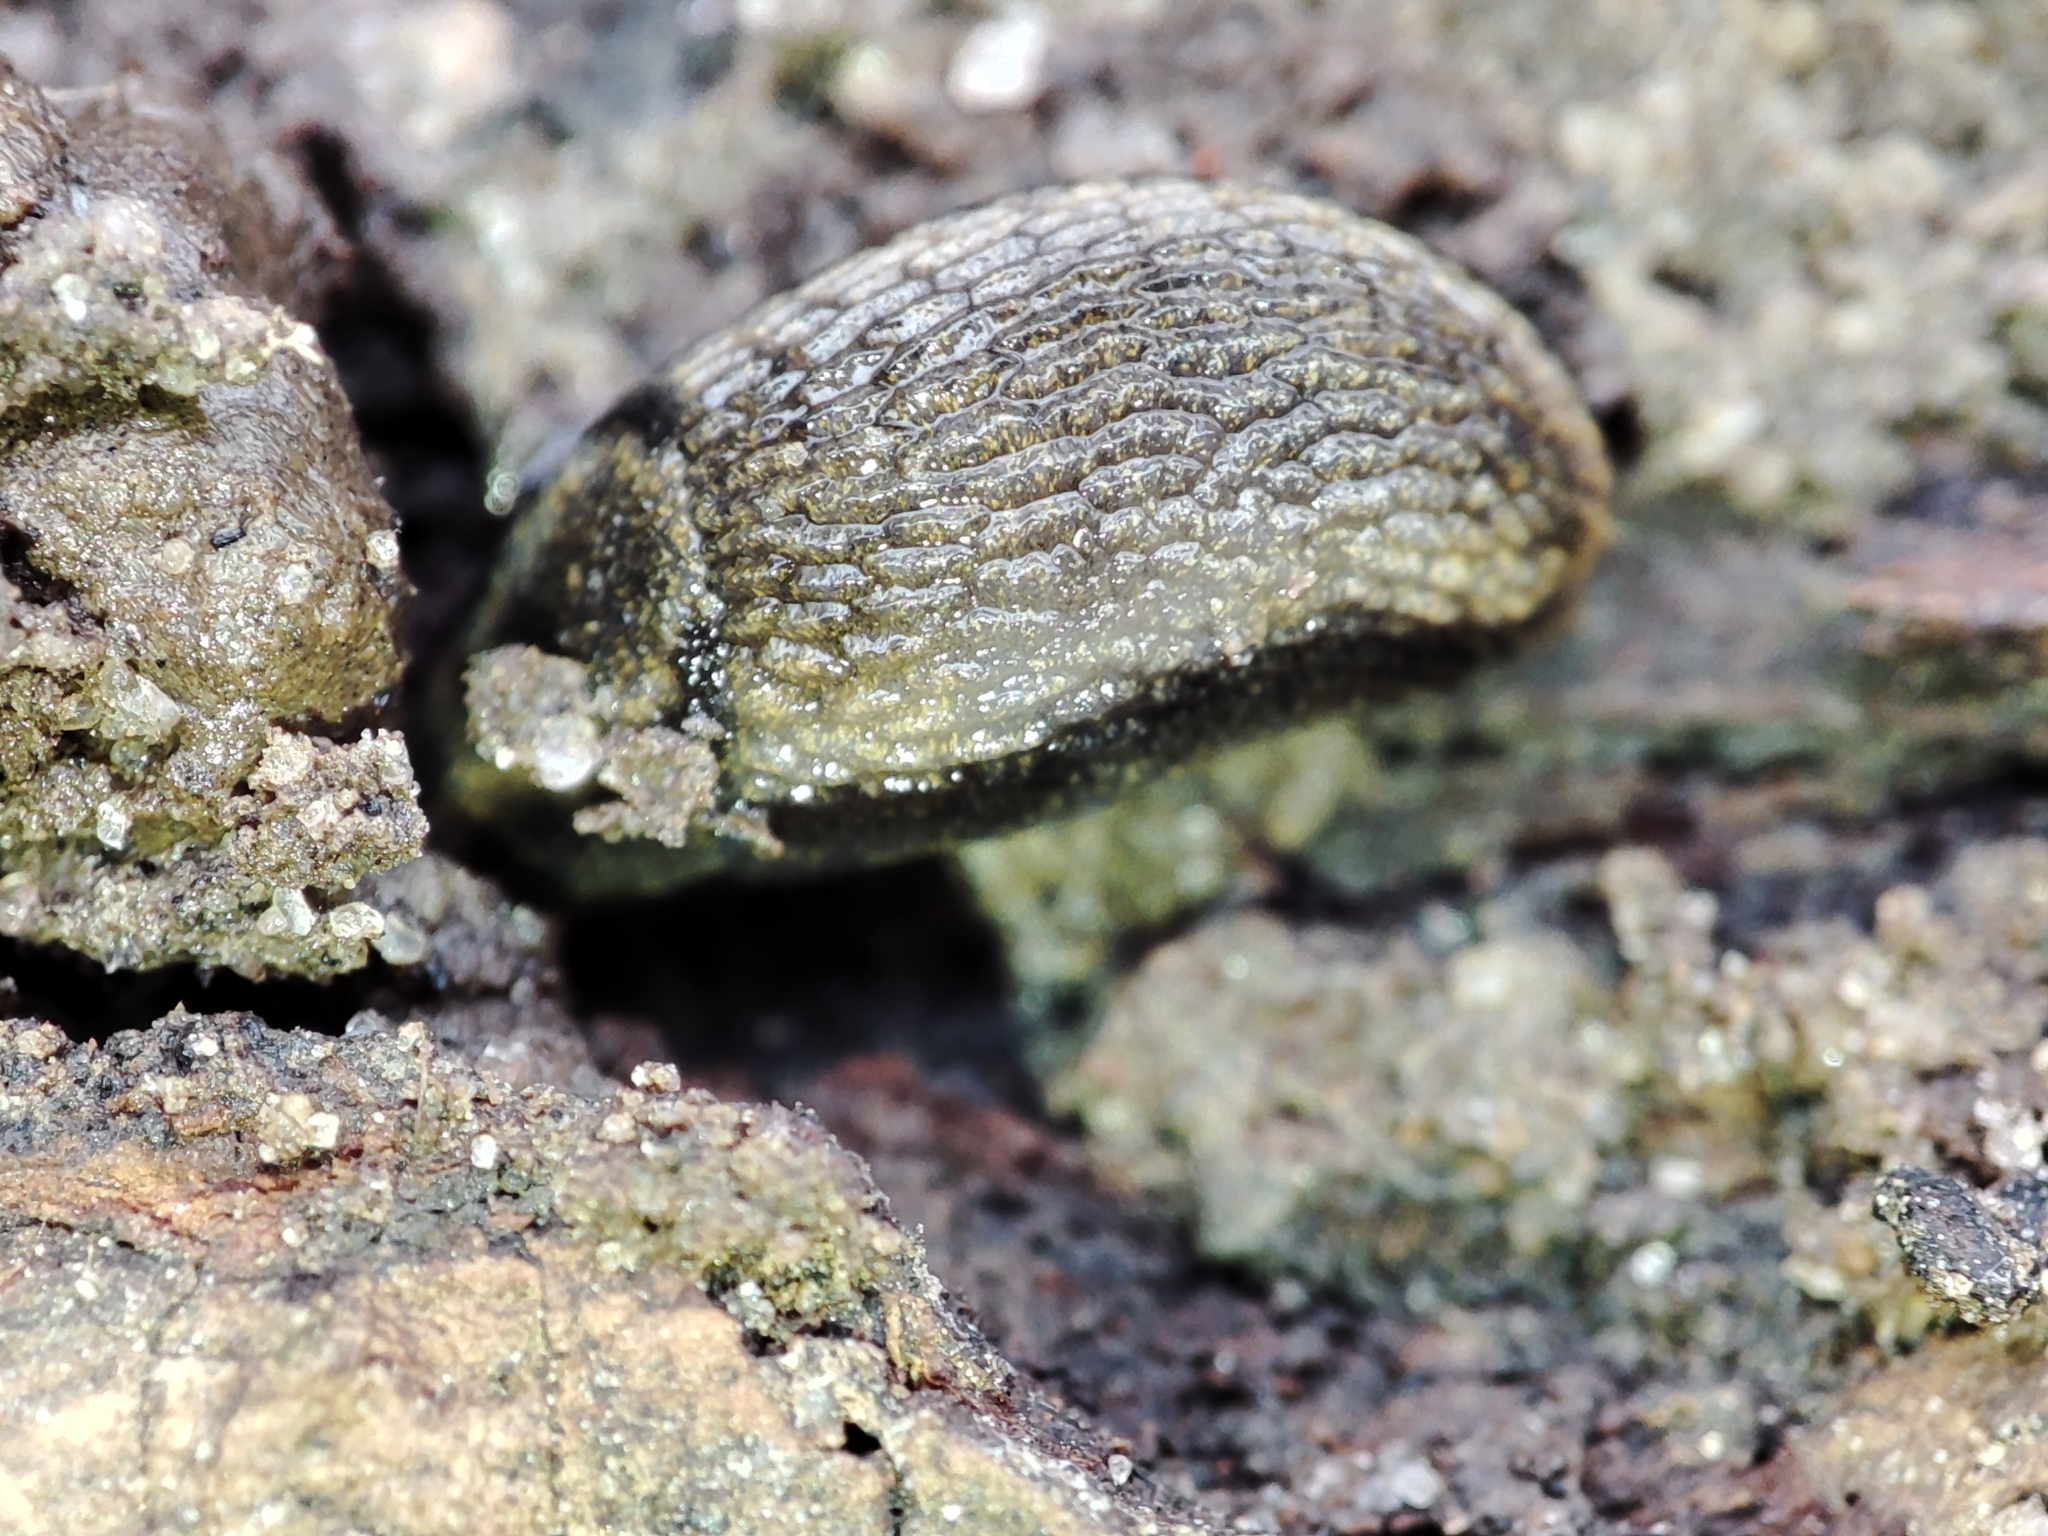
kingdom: Animalia
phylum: Mollusca
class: Gastropoda
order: Stylommatophora
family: Arionidae
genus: Arion
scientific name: Arion distinctus
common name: Darkface arion
